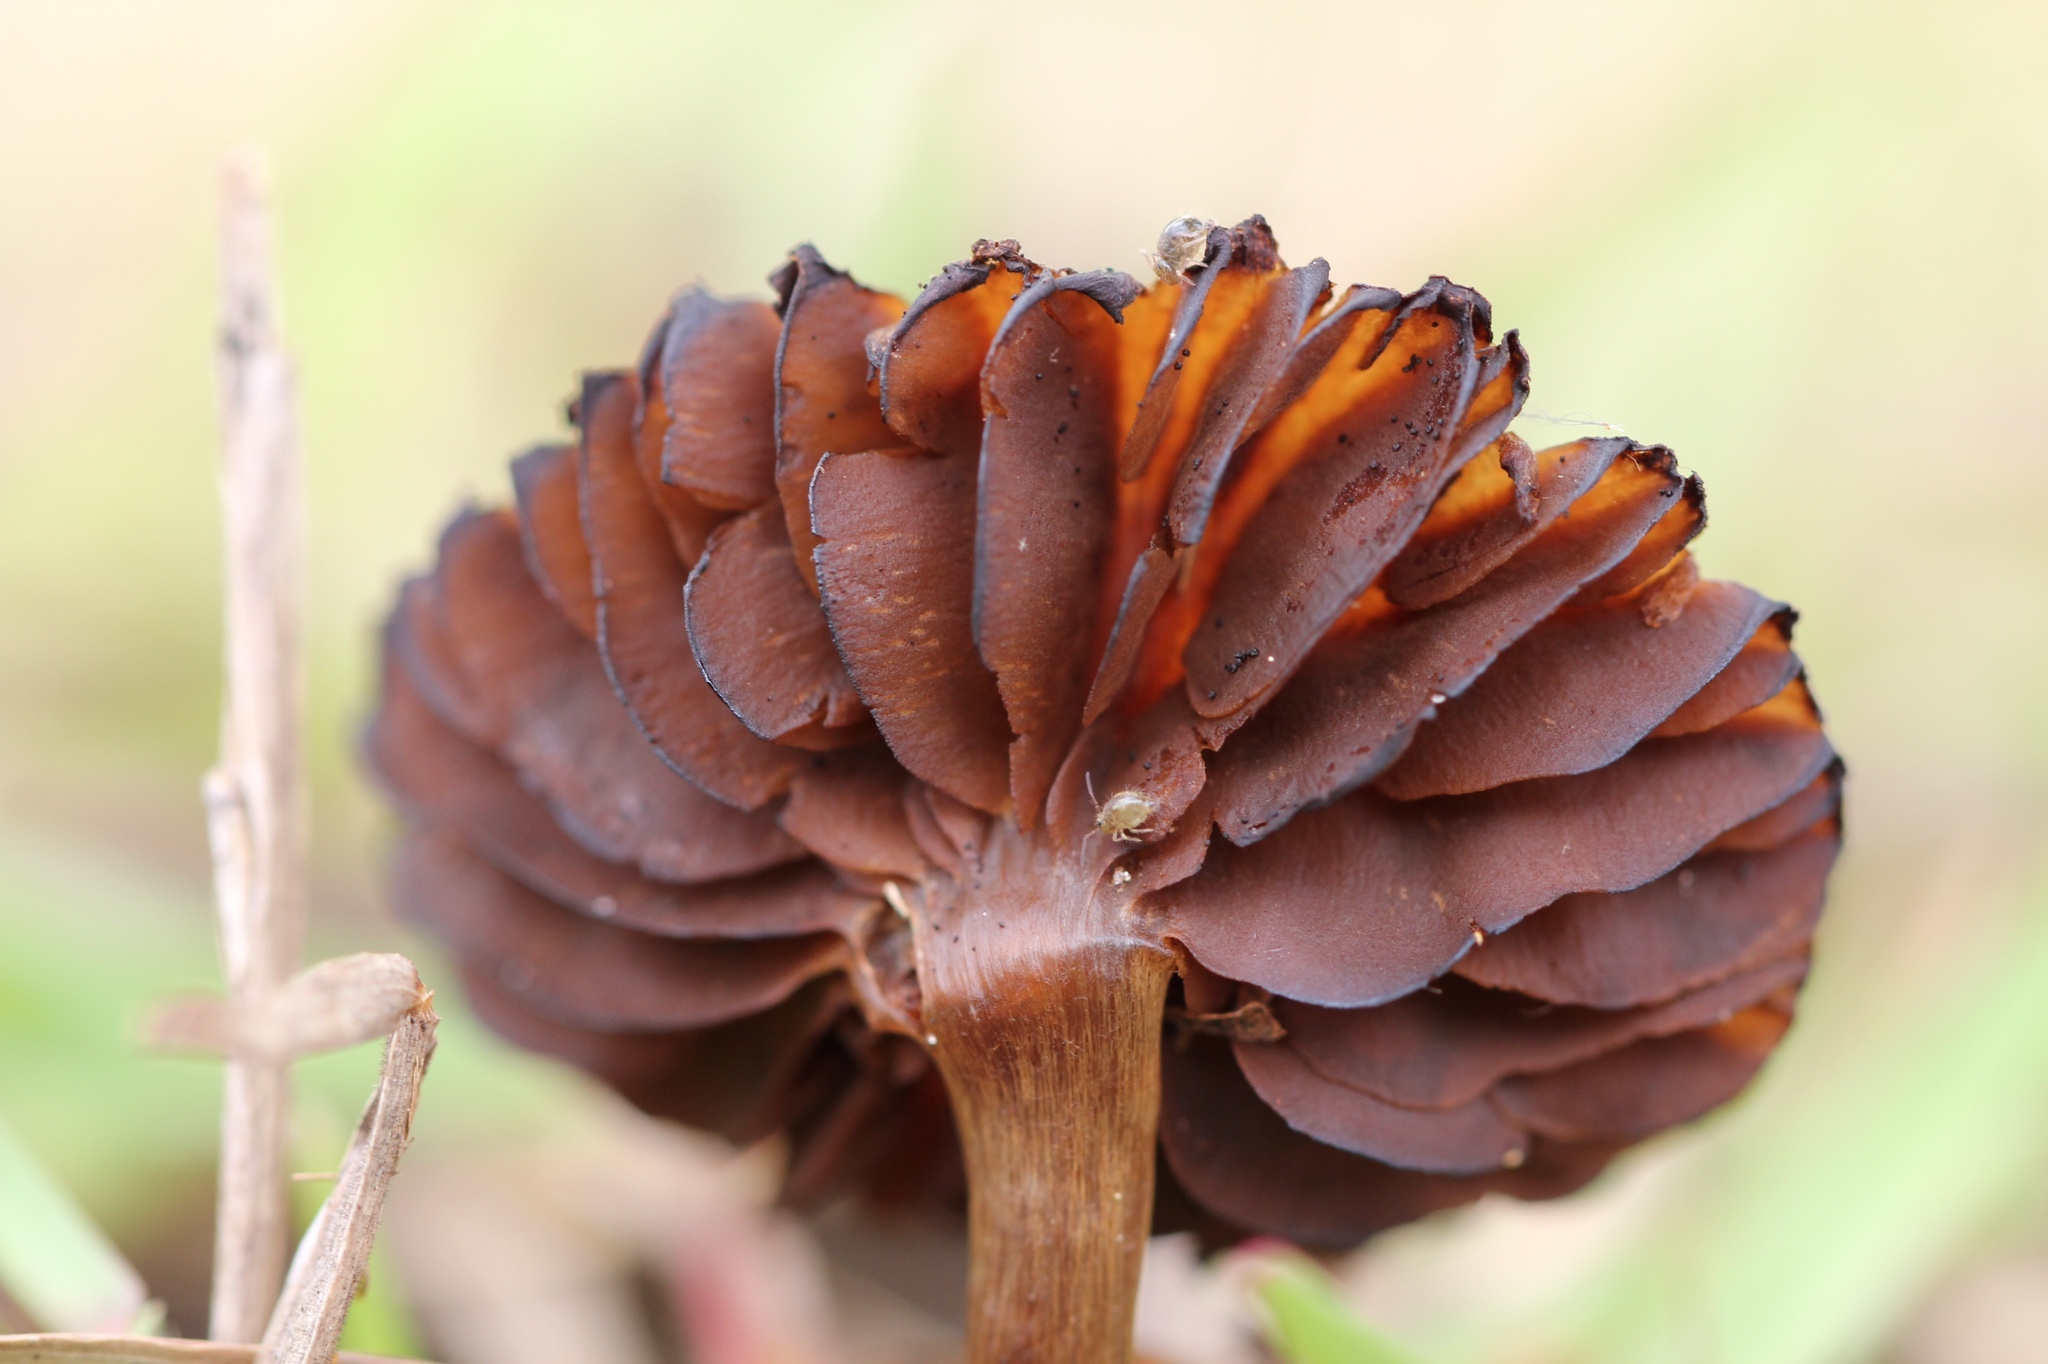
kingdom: Fungi
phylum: Basidiomycota
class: Agaricomycetes
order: Agaricales
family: Hydnangiaceae
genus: Laccaria
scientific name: Laccaria laccata
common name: Deceiver
